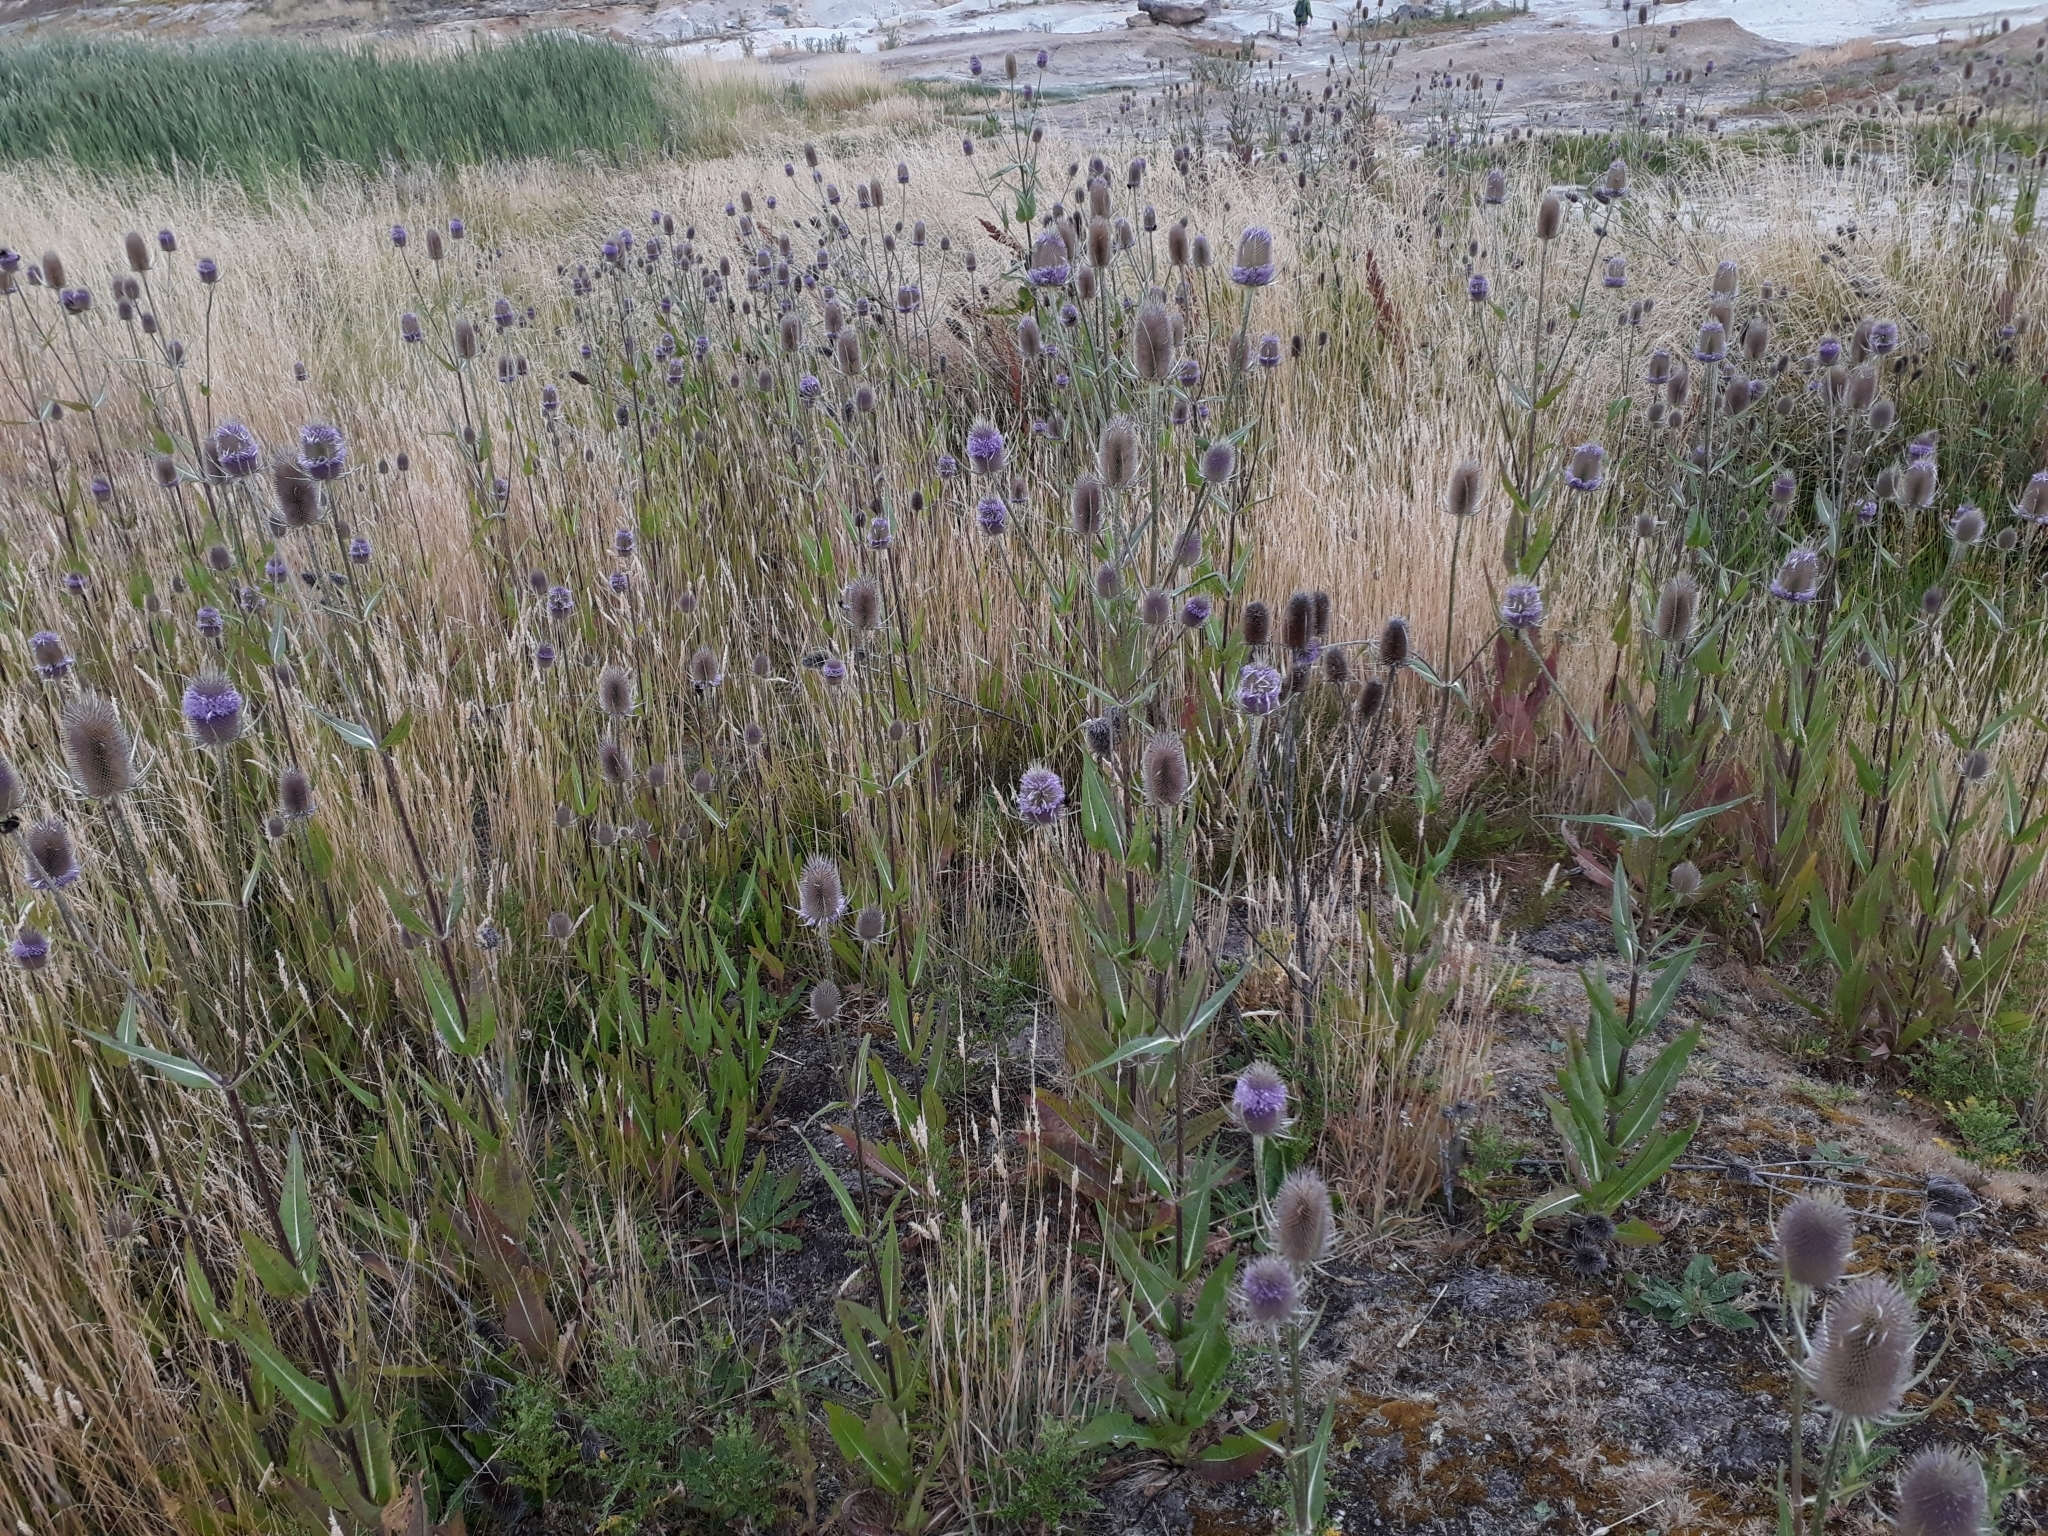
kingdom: Plantae
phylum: Tracheophyta
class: Magnoliopsida
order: Dipsacales
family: Caprifoliaceae
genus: Dipsacus
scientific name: Dipsacus fullonum
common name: Teasel
